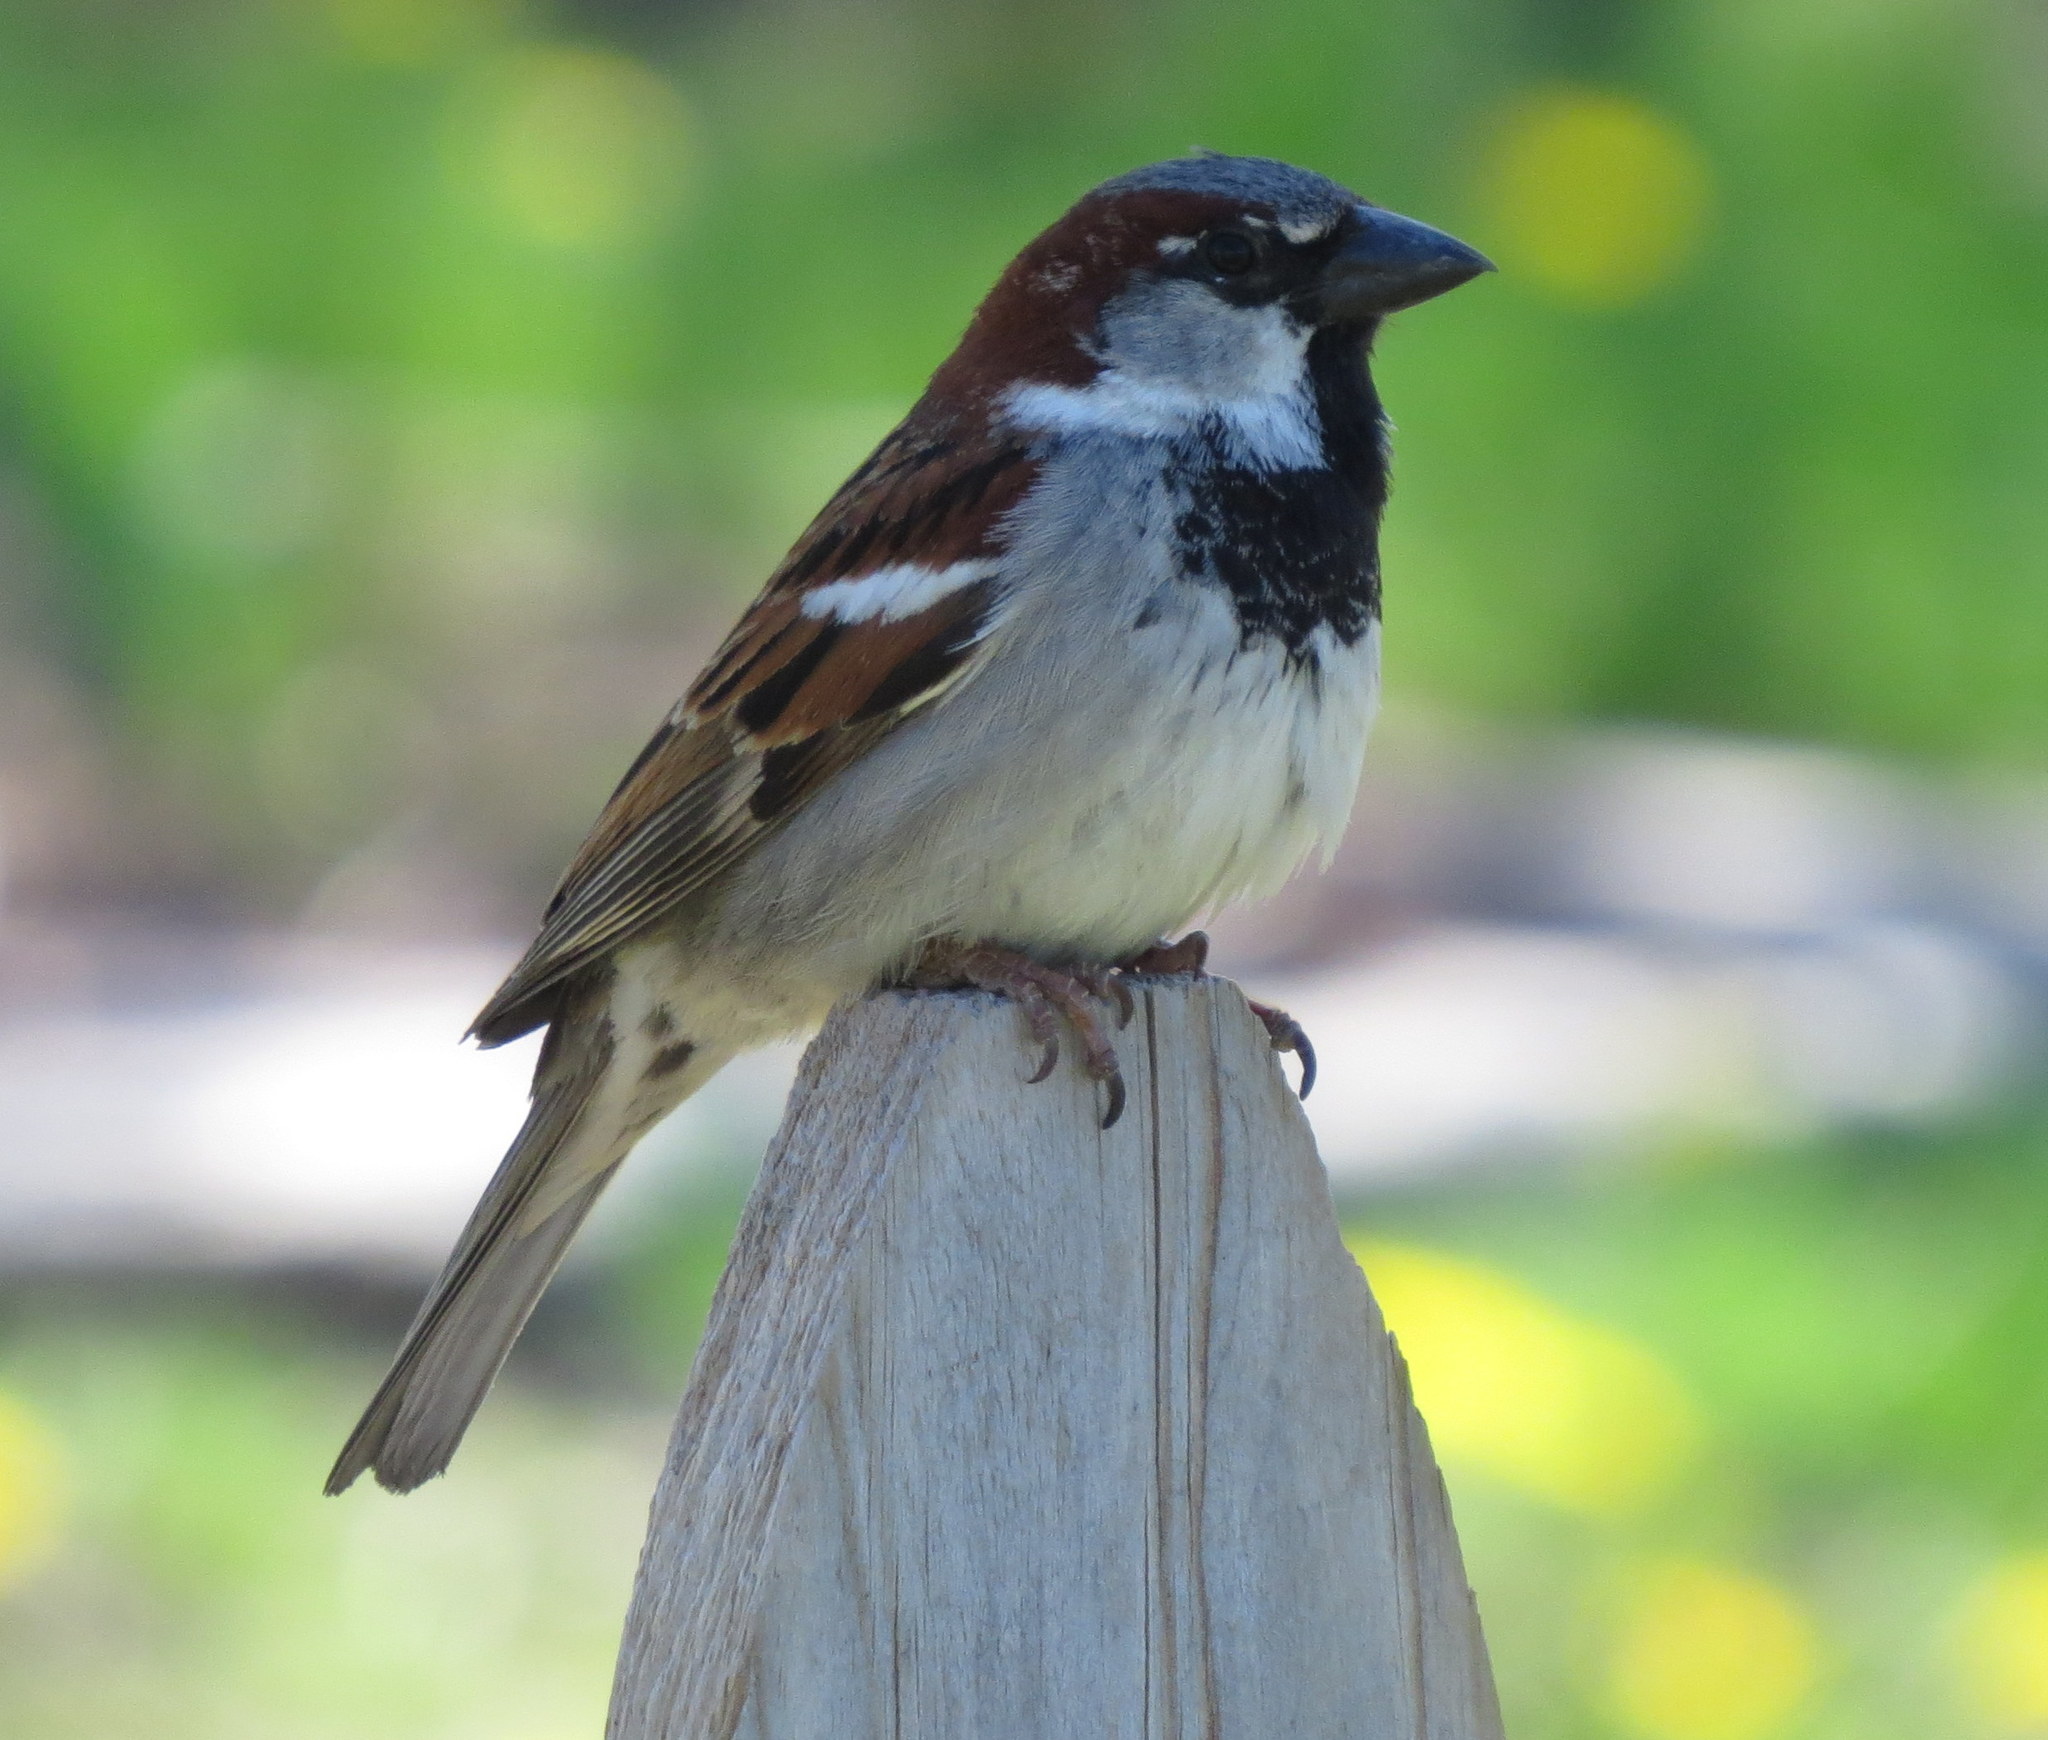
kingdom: Animalia
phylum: Chordata
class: Aves
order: Passeriformes
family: Passeridae
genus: Passer
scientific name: Passer domesticus
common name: House sparrow
